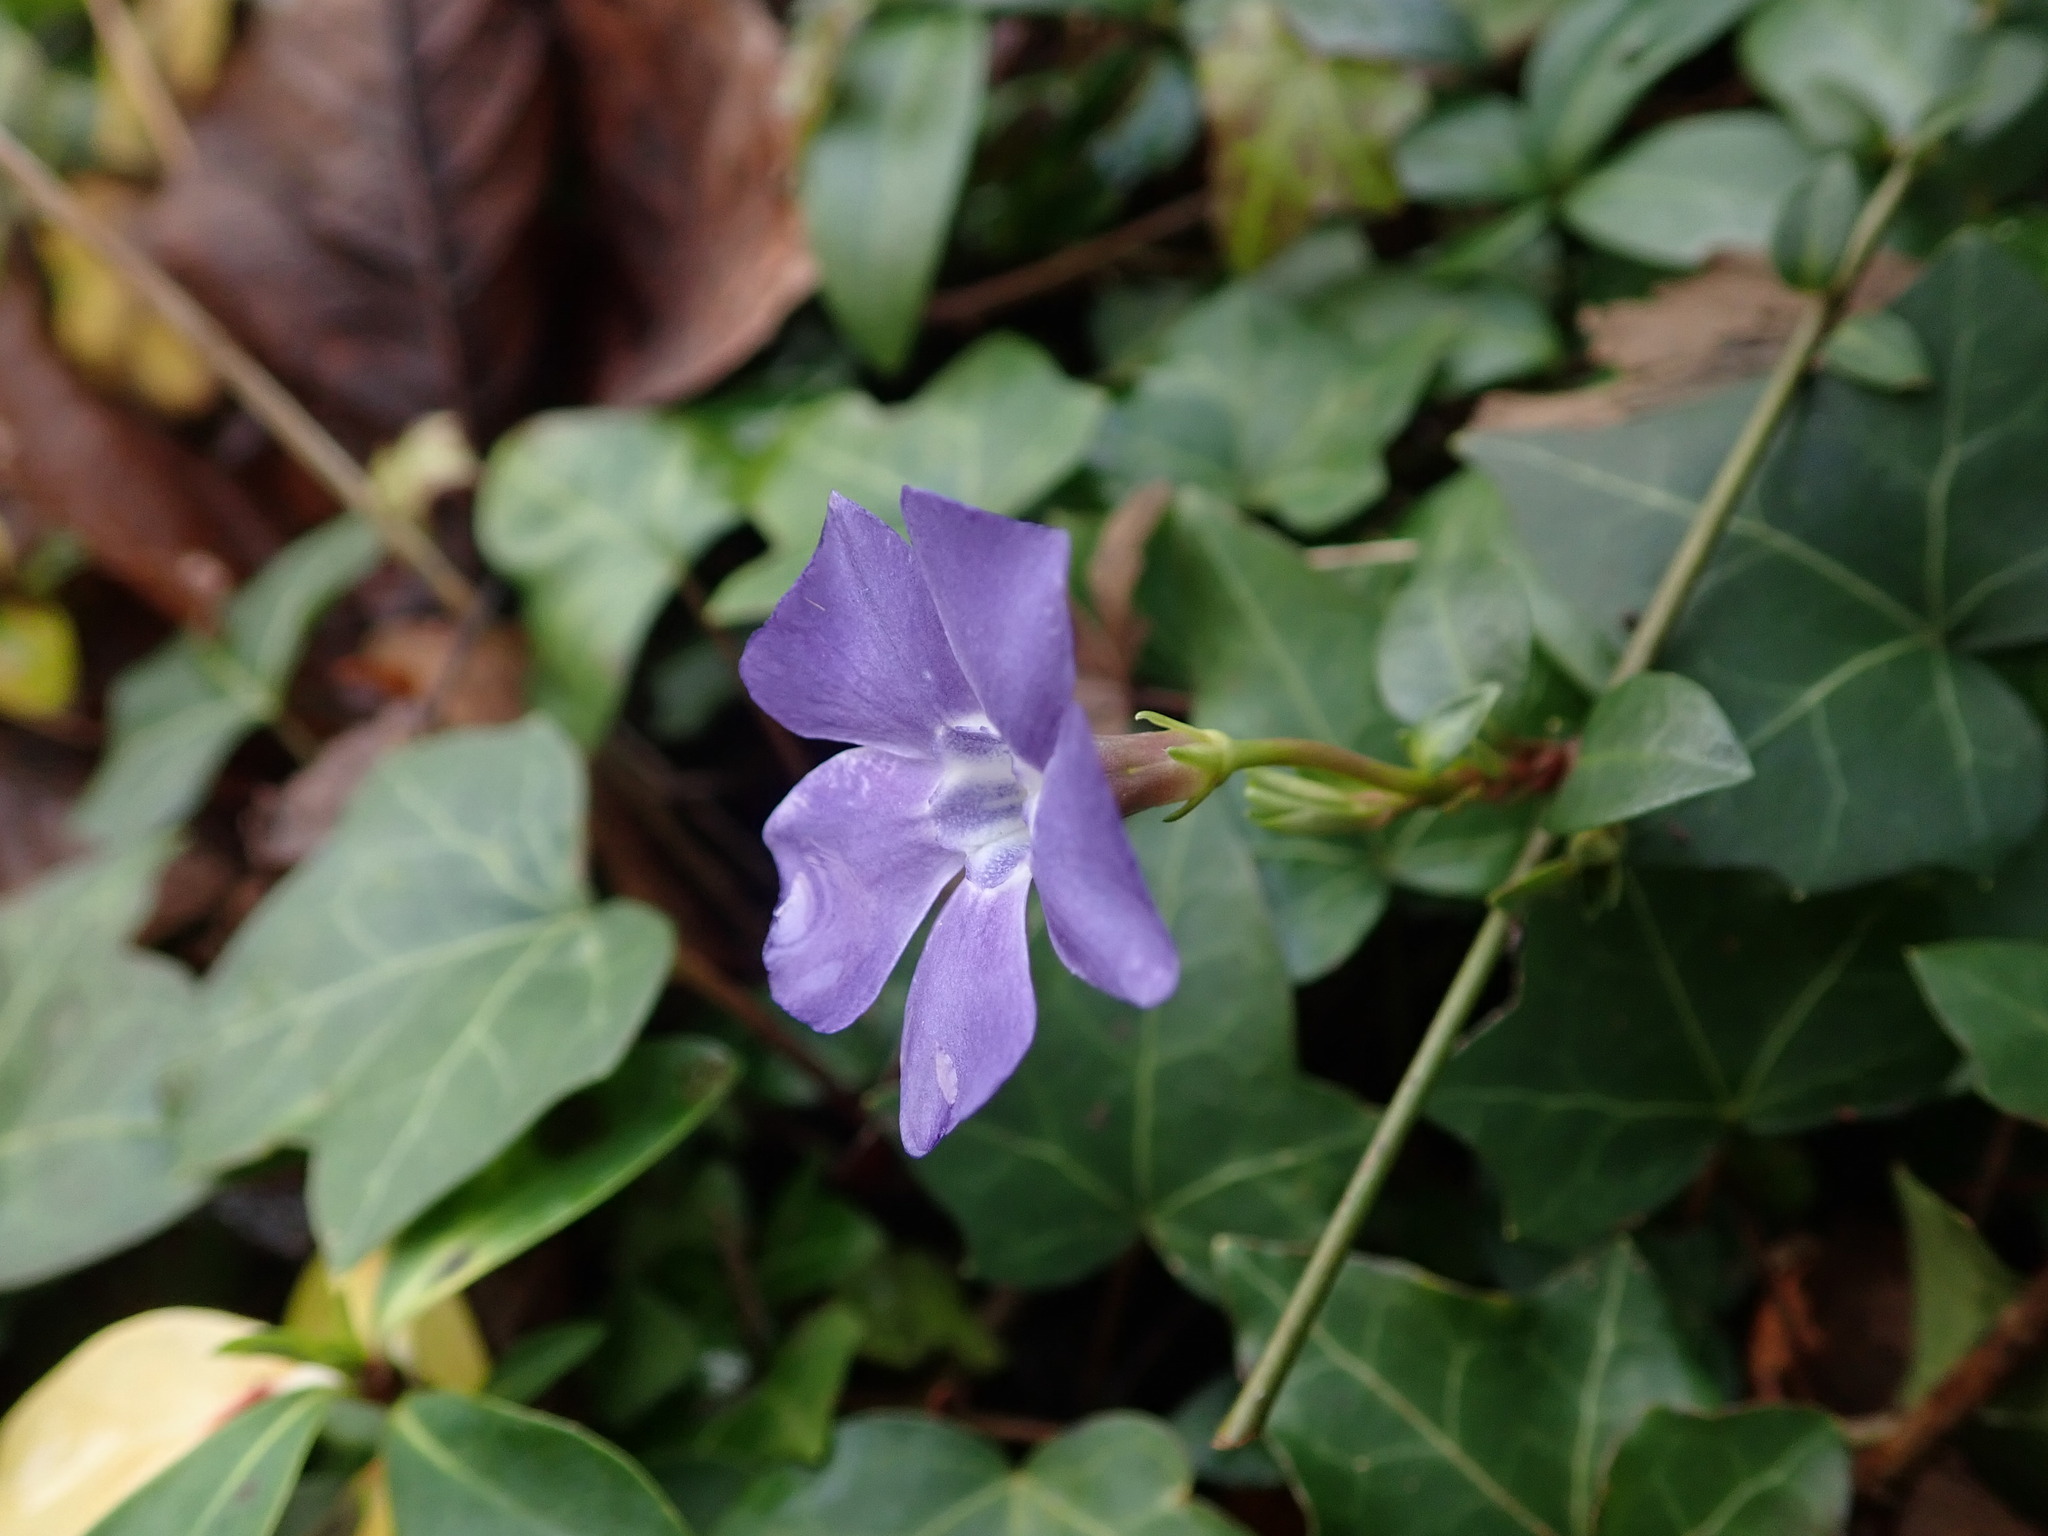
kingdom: Plantae
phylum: Tracheophyta
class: Magnoliopsida
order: Gentianales
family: Apocynaceae
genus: Vinca
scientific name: Vinca minor
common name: Lesser periwinkle
